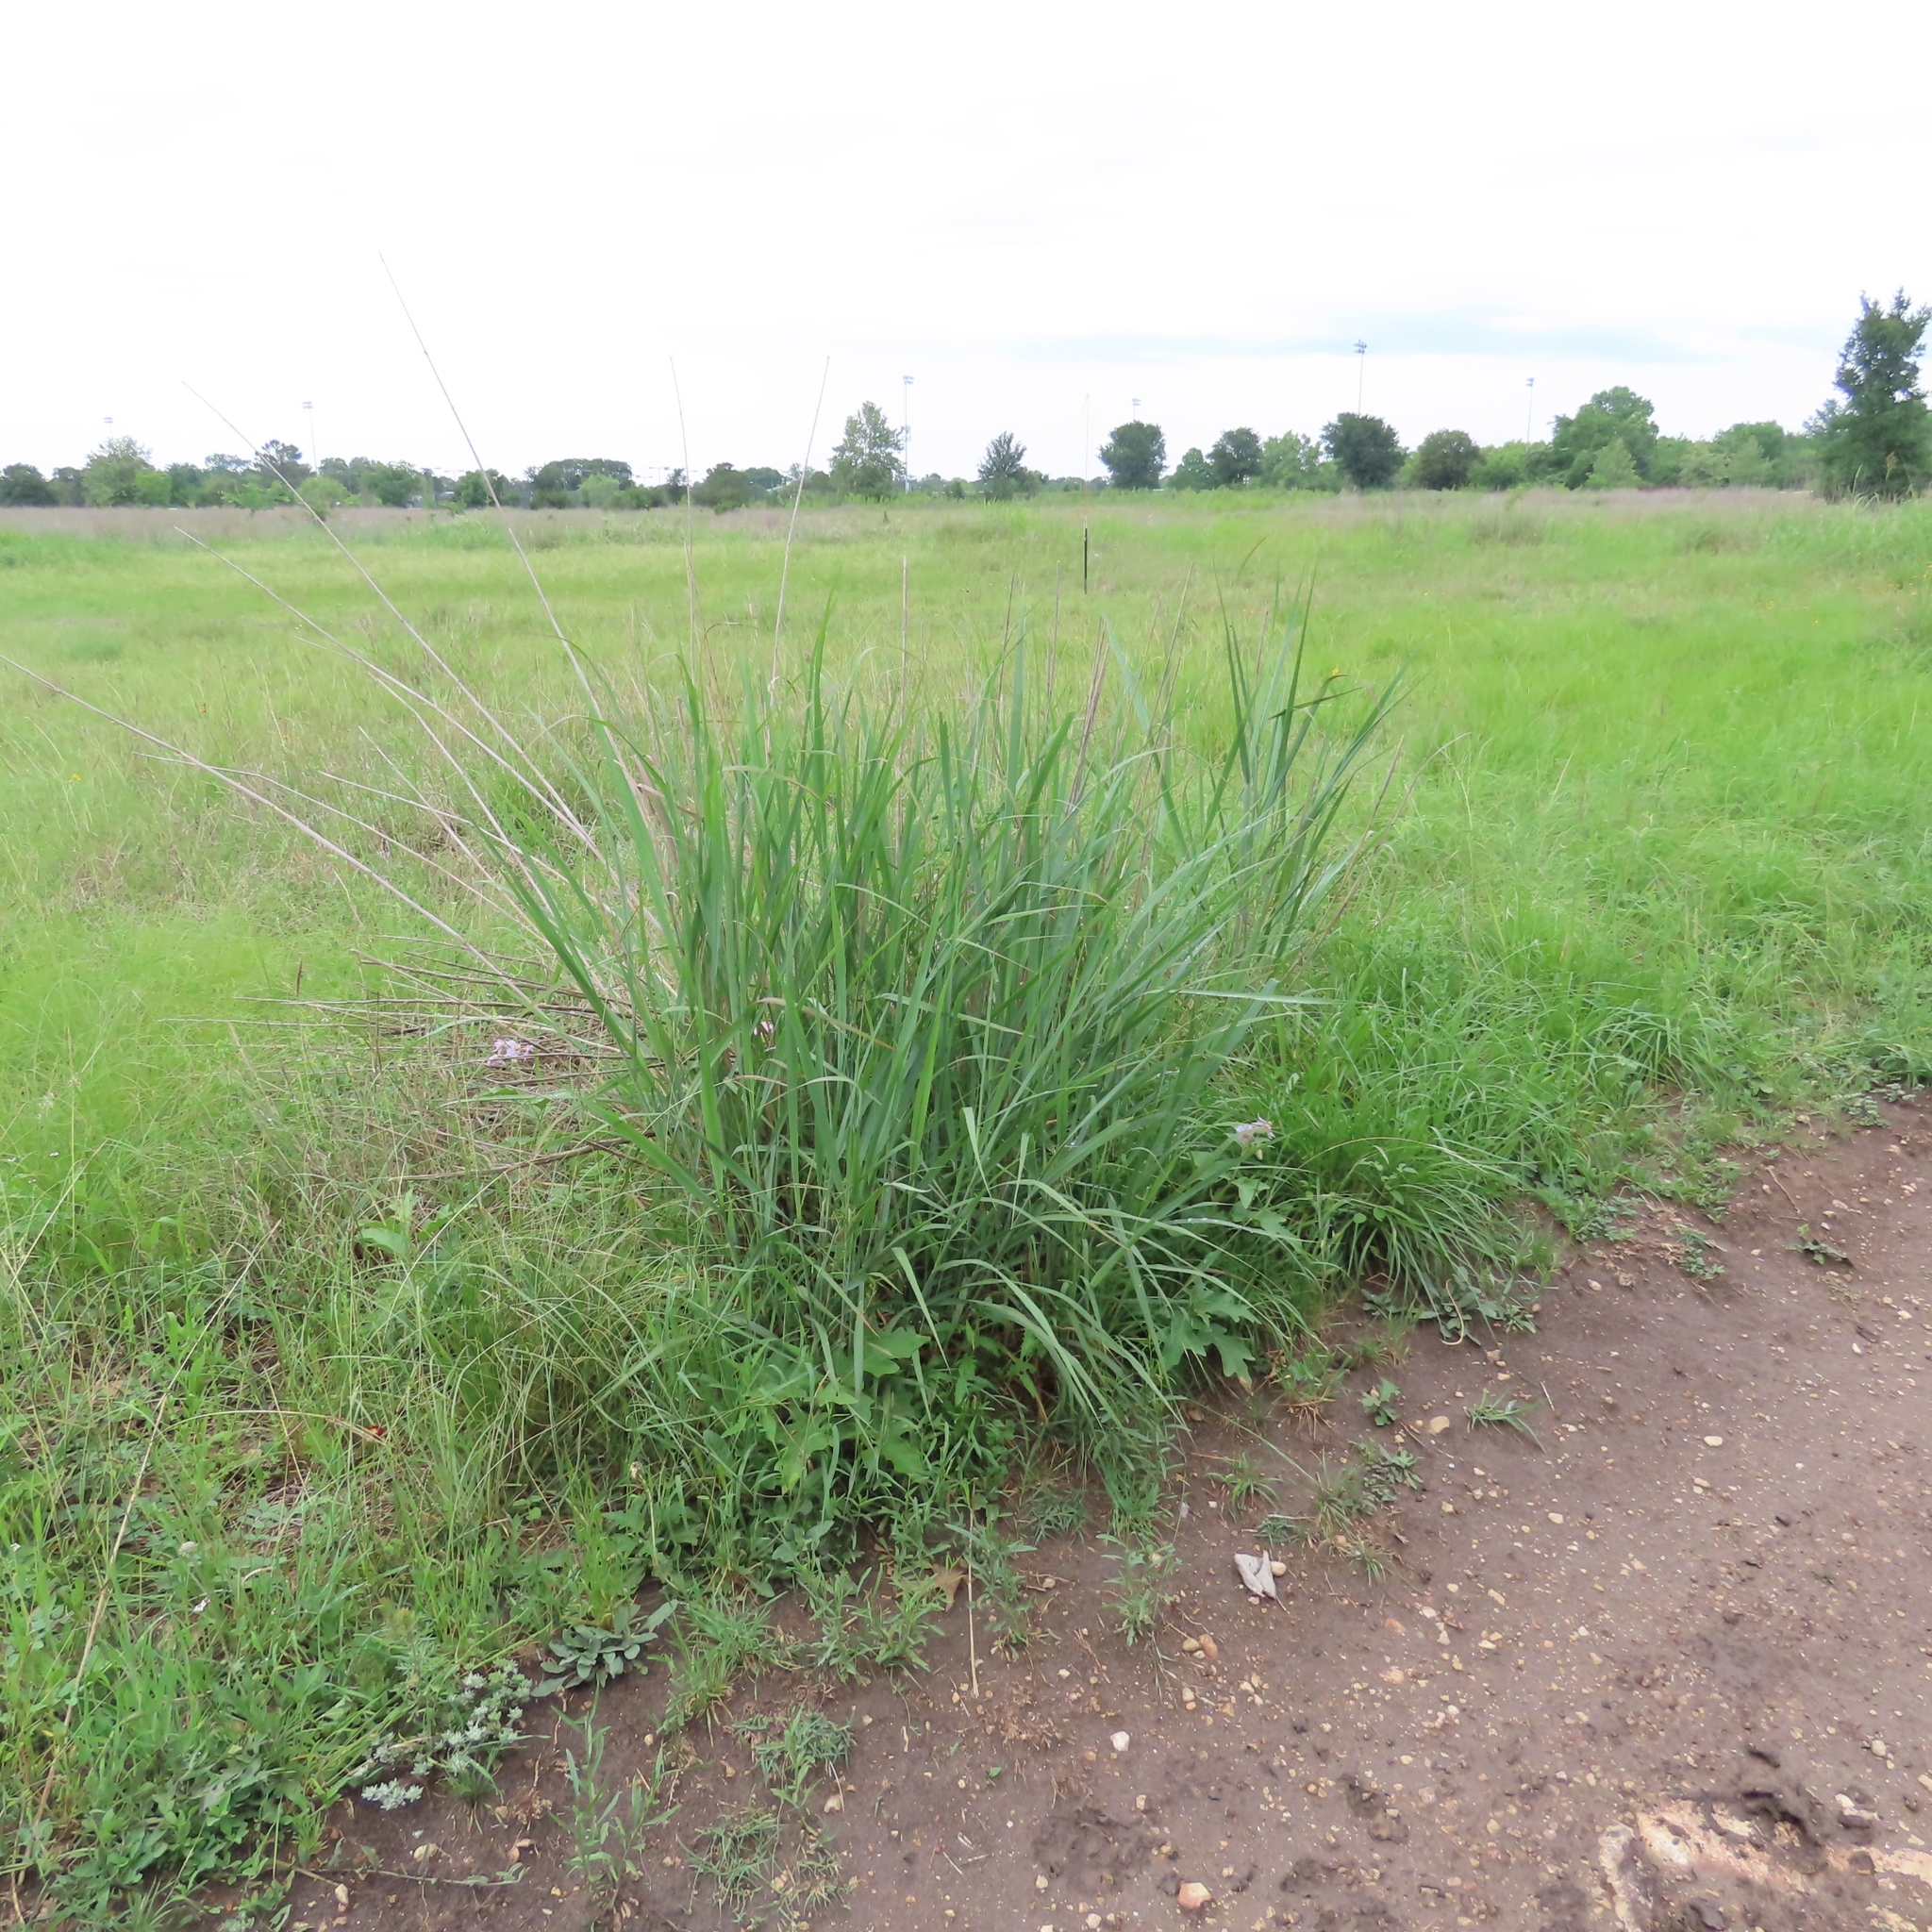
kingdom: Plantae
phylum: Tracheophyta
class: Liliopsida
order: Poales
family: Poaceae
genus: Panicum
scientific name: Panicum virgatum
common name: Switchgrass
